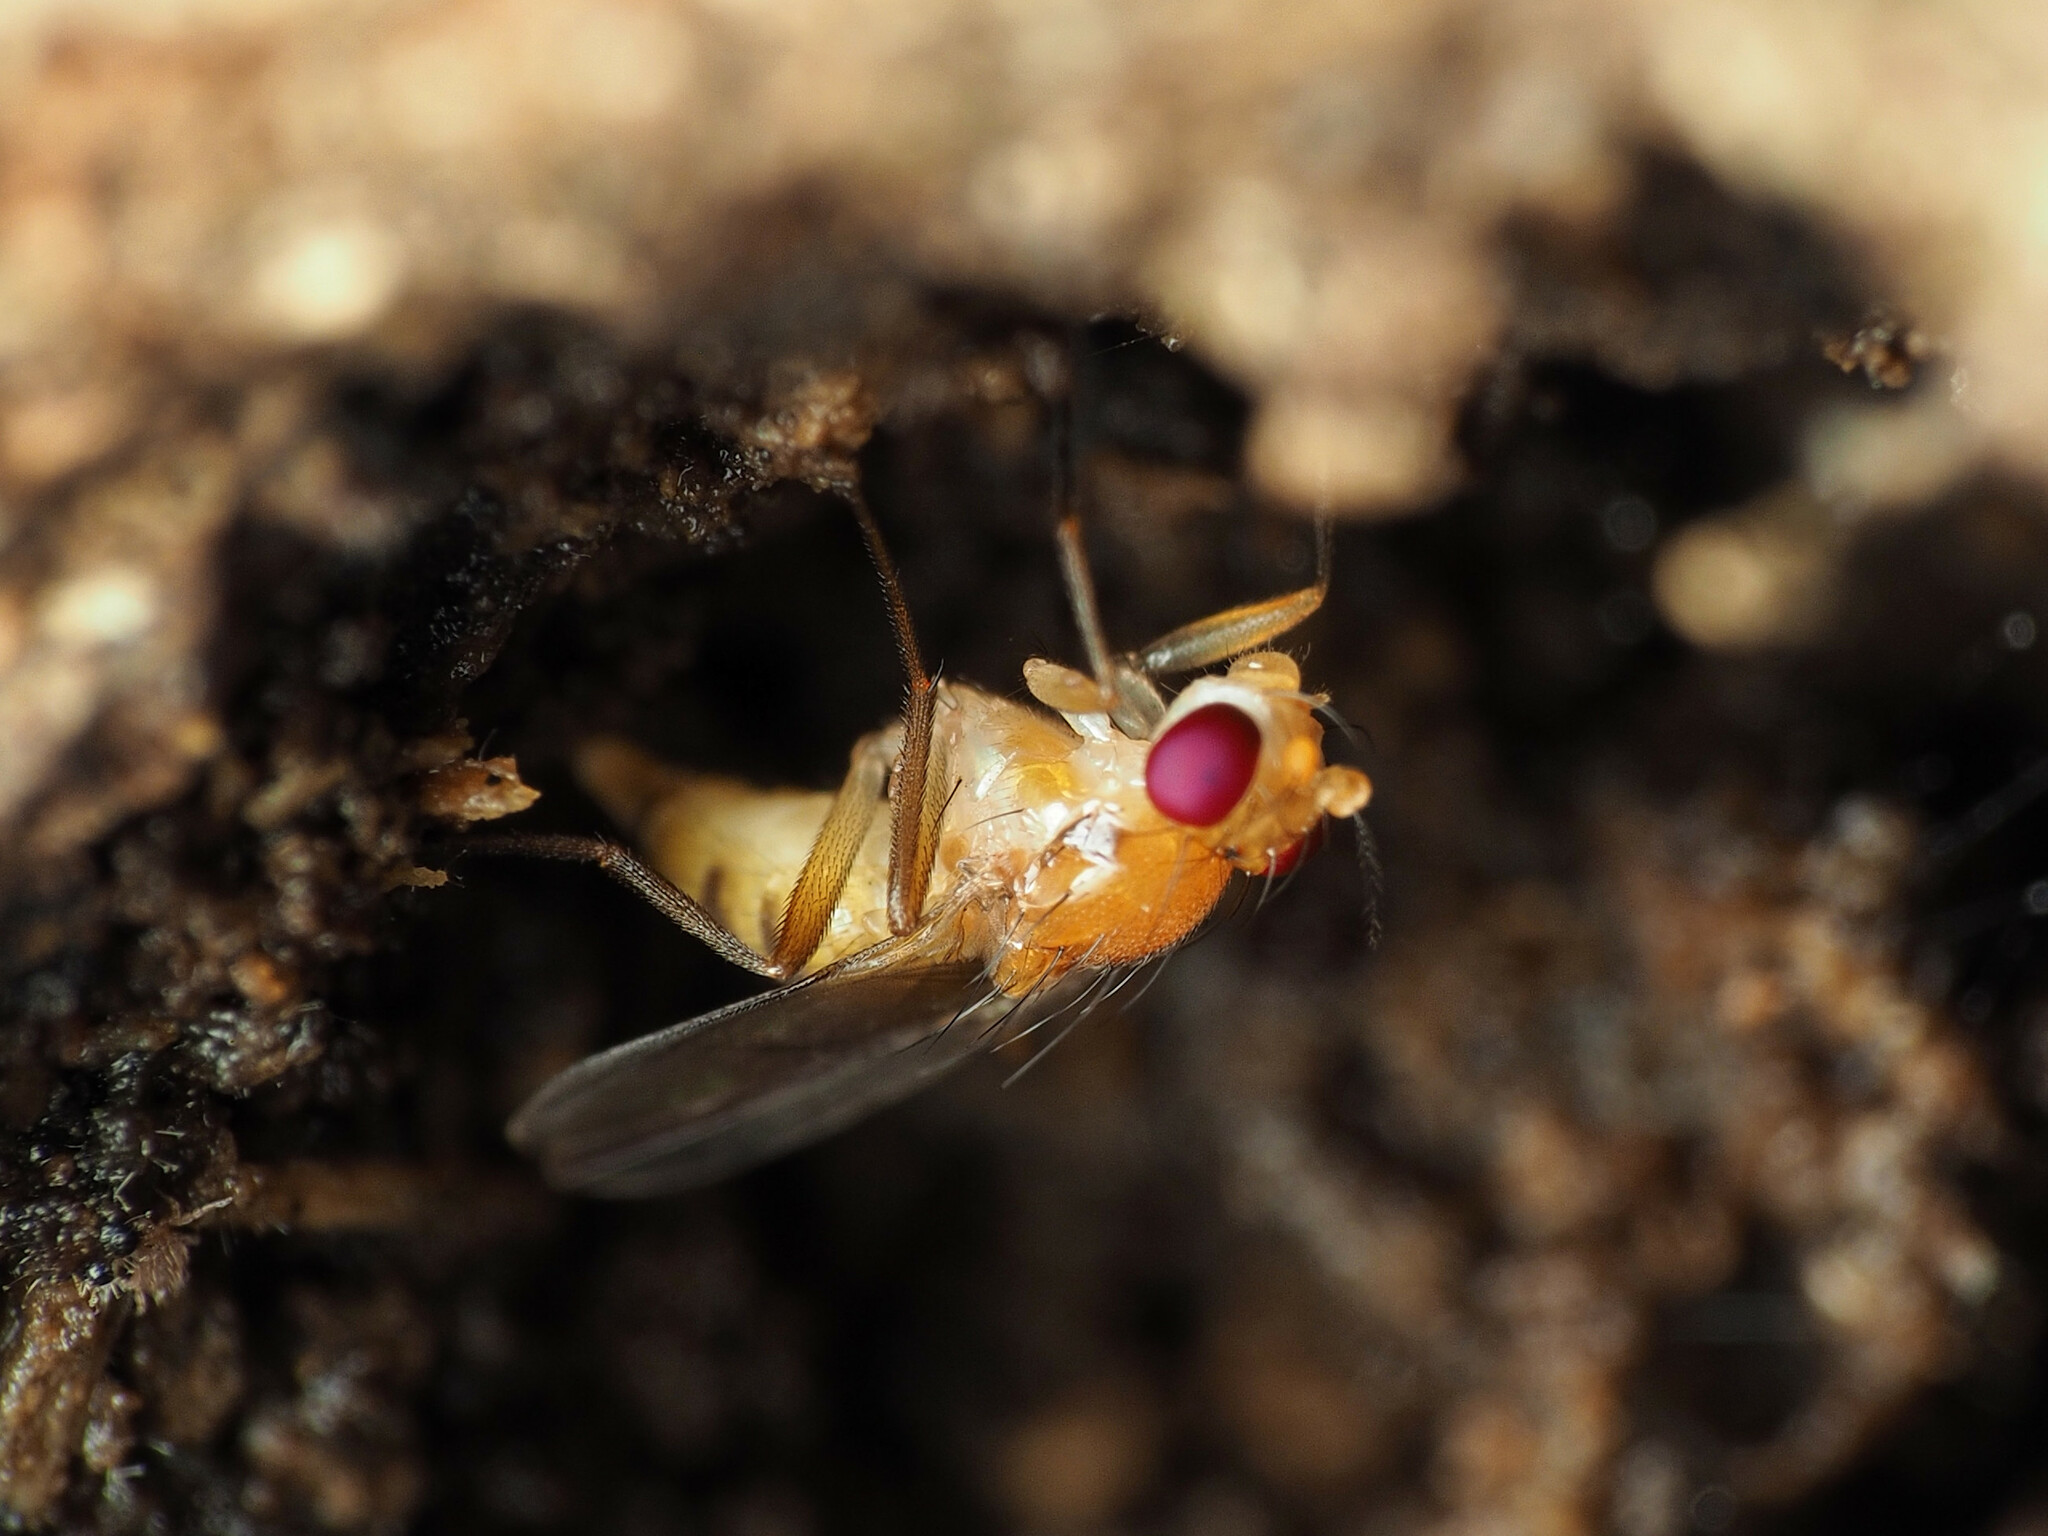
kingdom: Animalia
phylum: Arthropoda
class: Insecta
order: Diptera
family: Clusiidae
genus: Sobarocephala
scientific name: Sobarocephala lachnosternum
